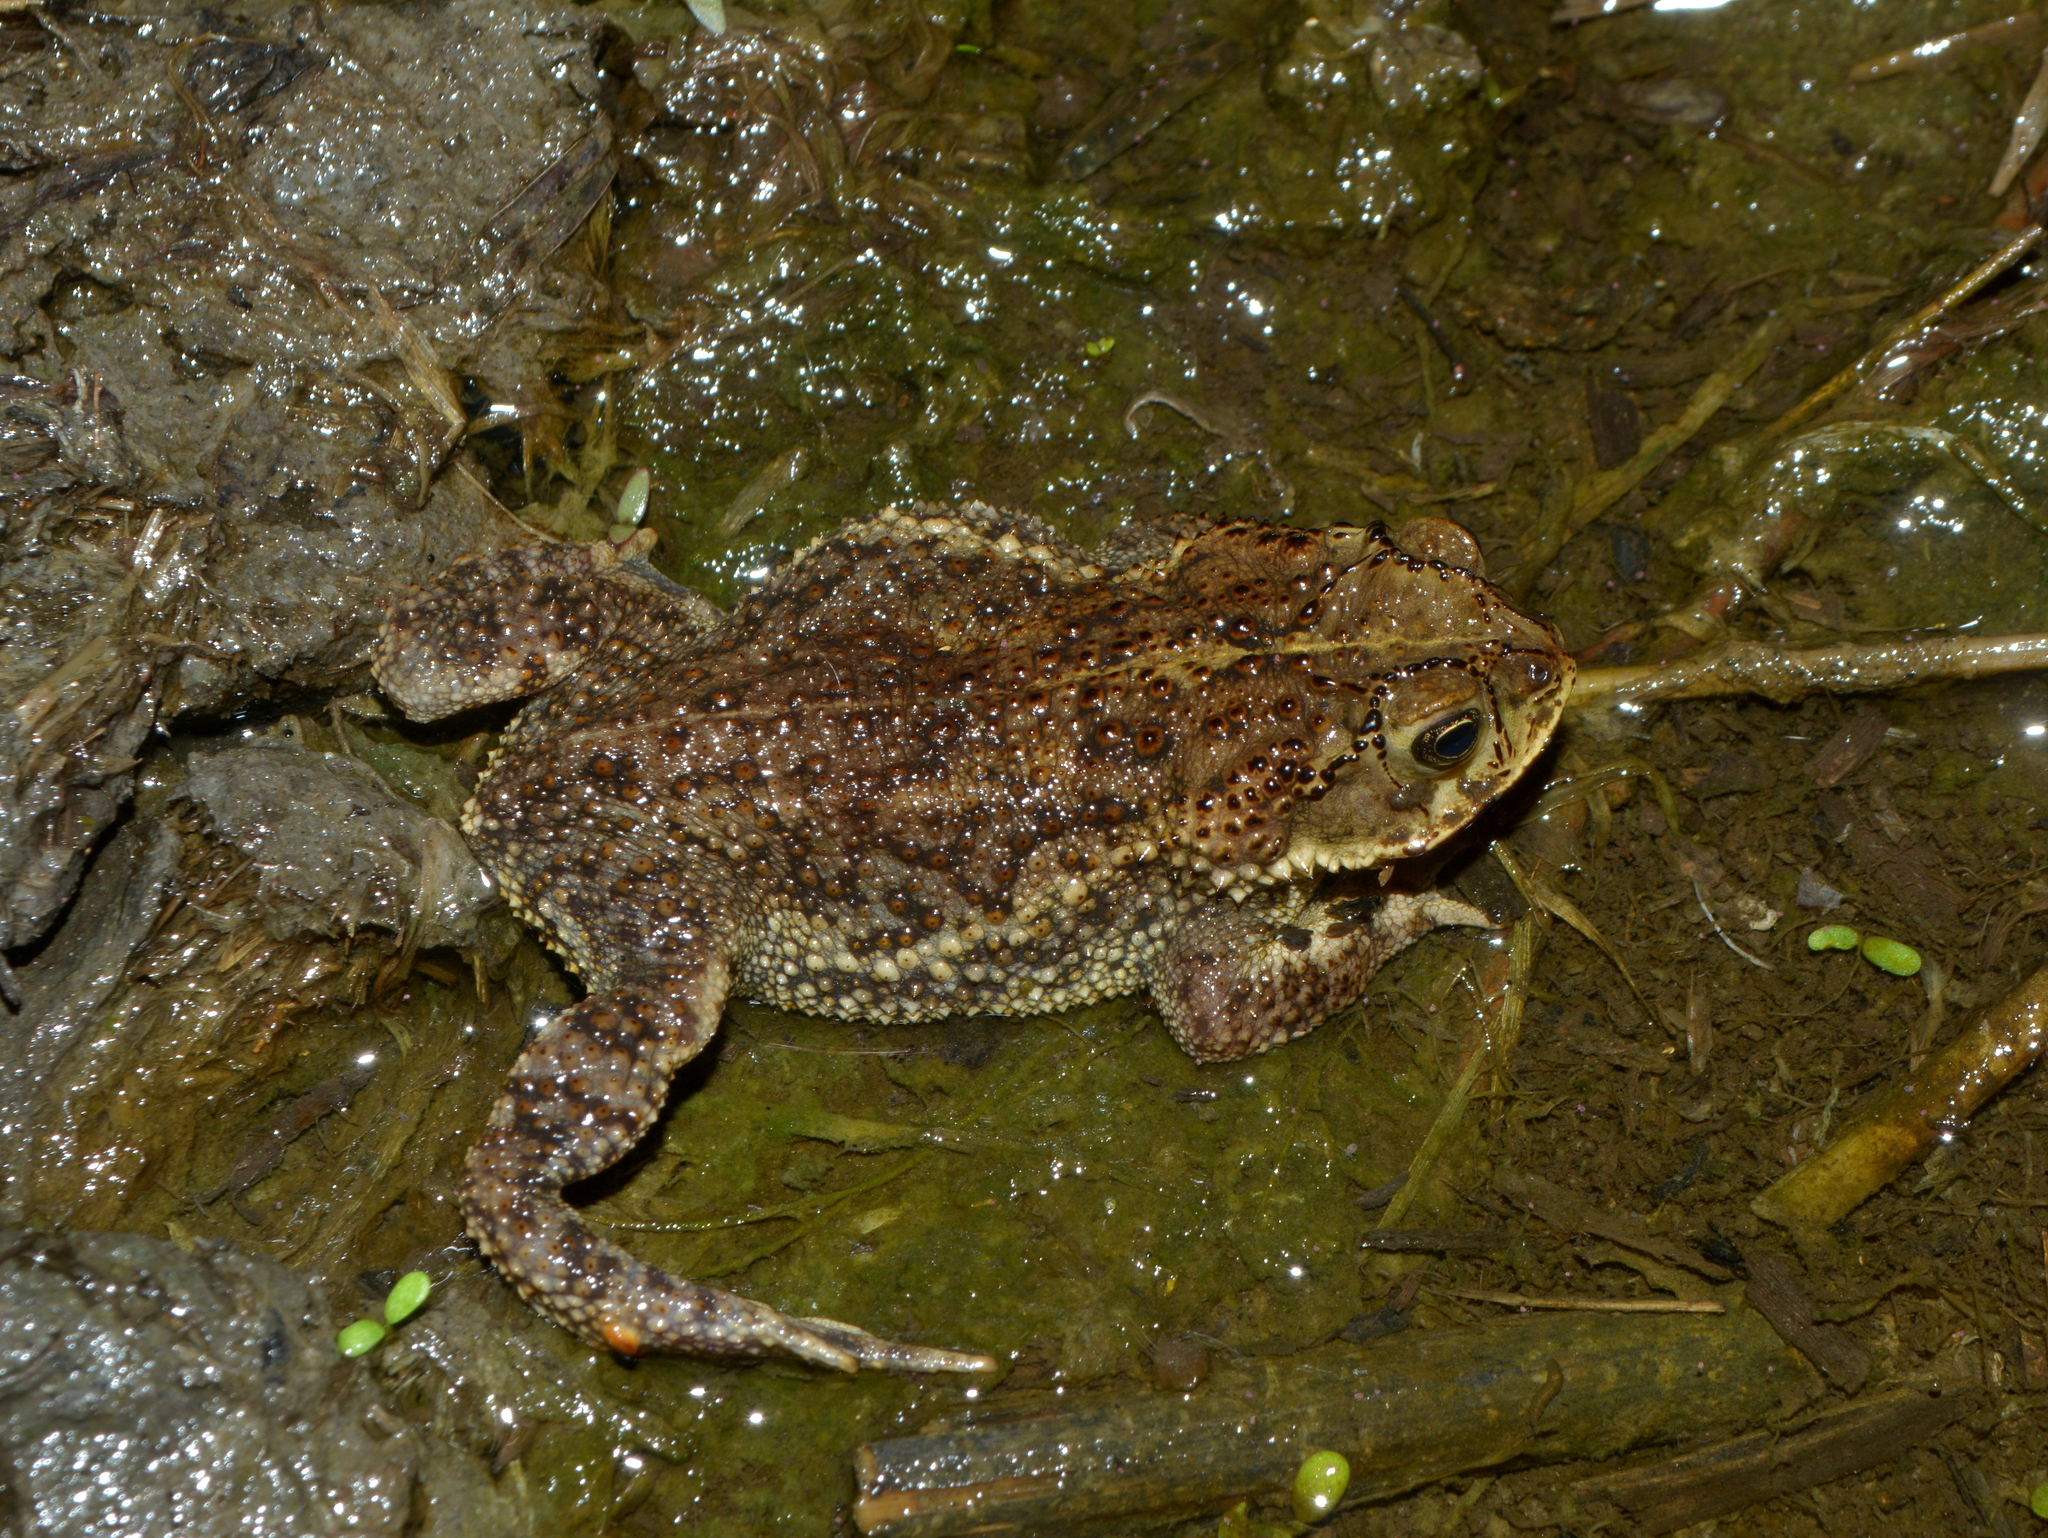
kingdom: Animalia
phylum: Chordata
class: Amphibia
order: Anura
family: Bufonidae
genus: Rhinella
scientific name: Rhinella dorbignyi
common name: D´orbigny’s toad
